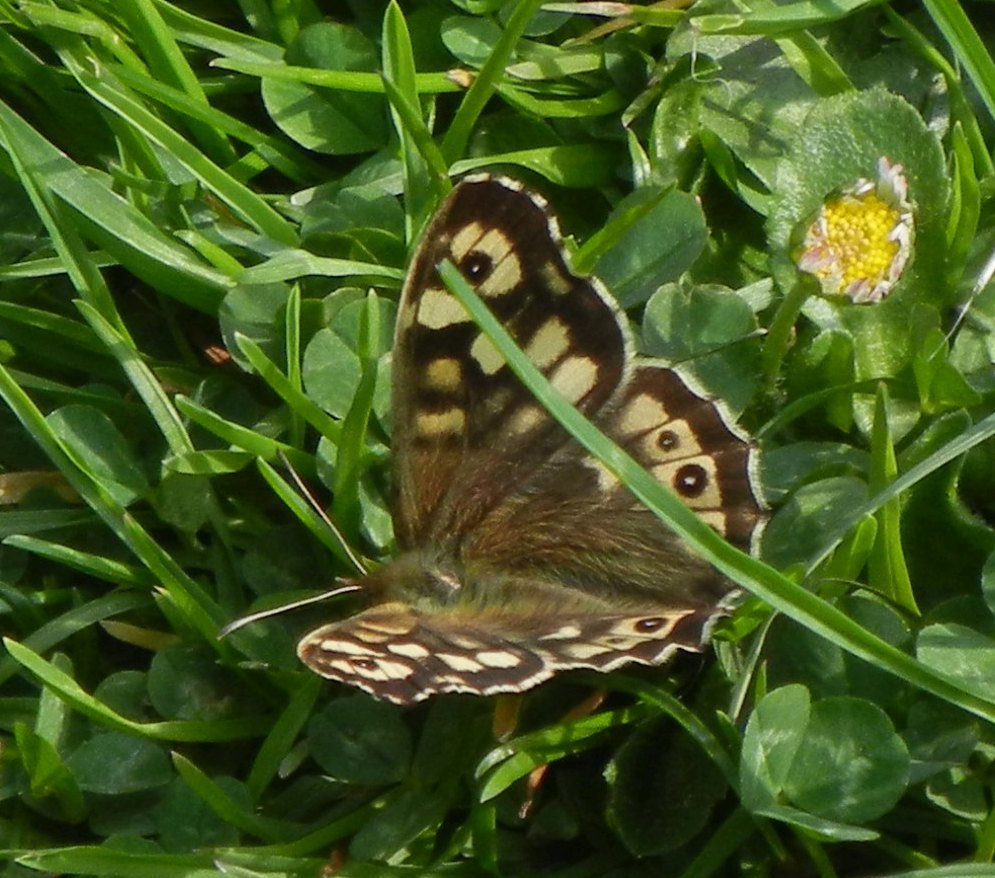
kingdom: Animalia
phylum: Arthropoda
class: Insecta
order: Lepidoptera
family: Nymphalidae
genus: Pararge
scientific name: Pararge aegeria
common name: Speckled wood
